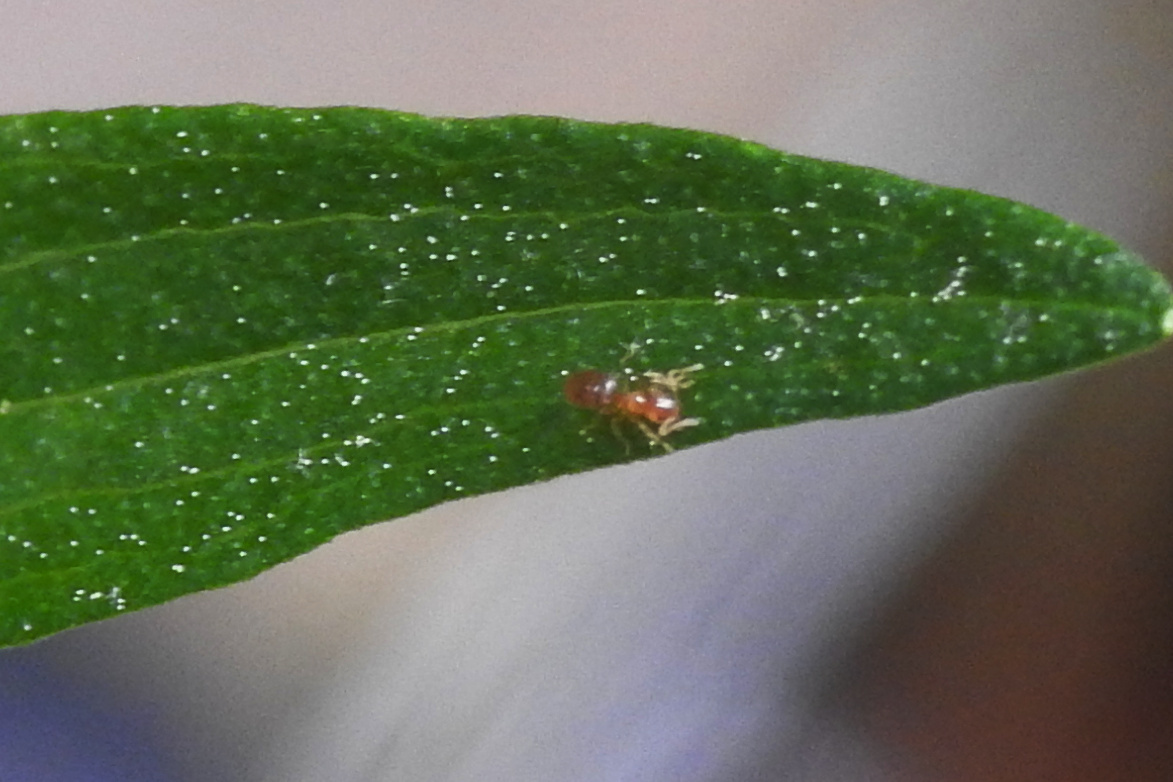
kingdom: Animalia
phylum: Arthropoda
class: Insecta
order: Hymenoptera
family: Formicidae
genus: Brachymyrmex
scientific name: Brachymyrmex depilis
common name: Hairless rover ant
